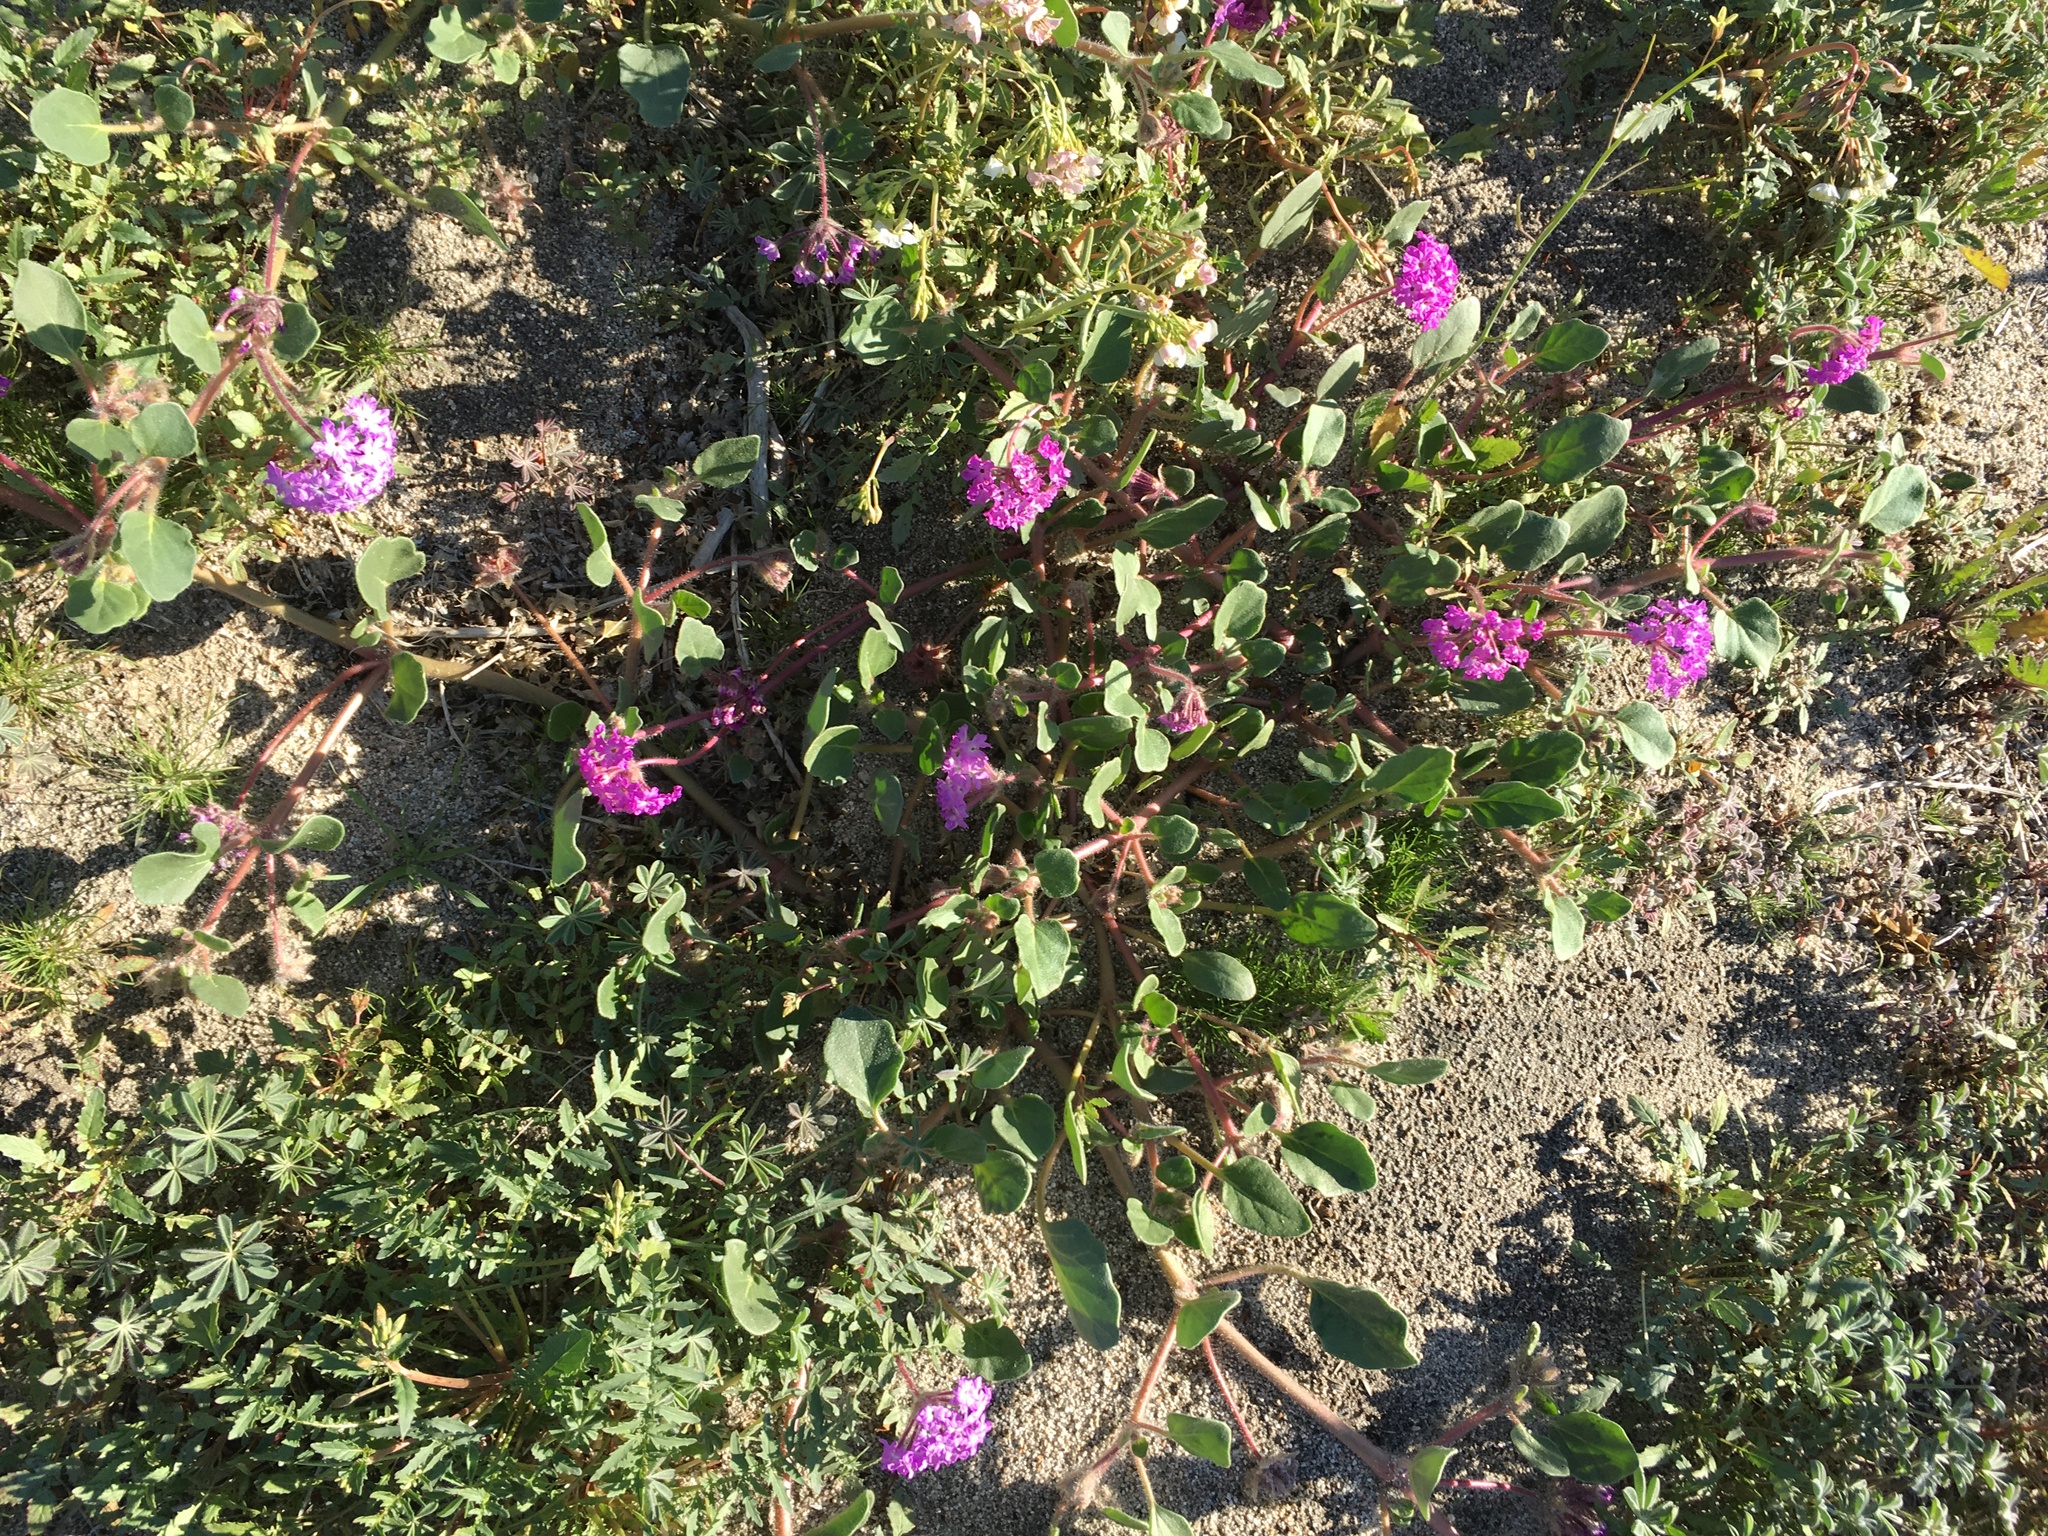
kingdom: Plantae
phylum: Tracheophyta
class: Magnoliopsida
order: Caryophyllales
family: Nyctaginaceae
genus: Abronia
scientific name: Abronia villosa
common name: Desert sand-verbena
